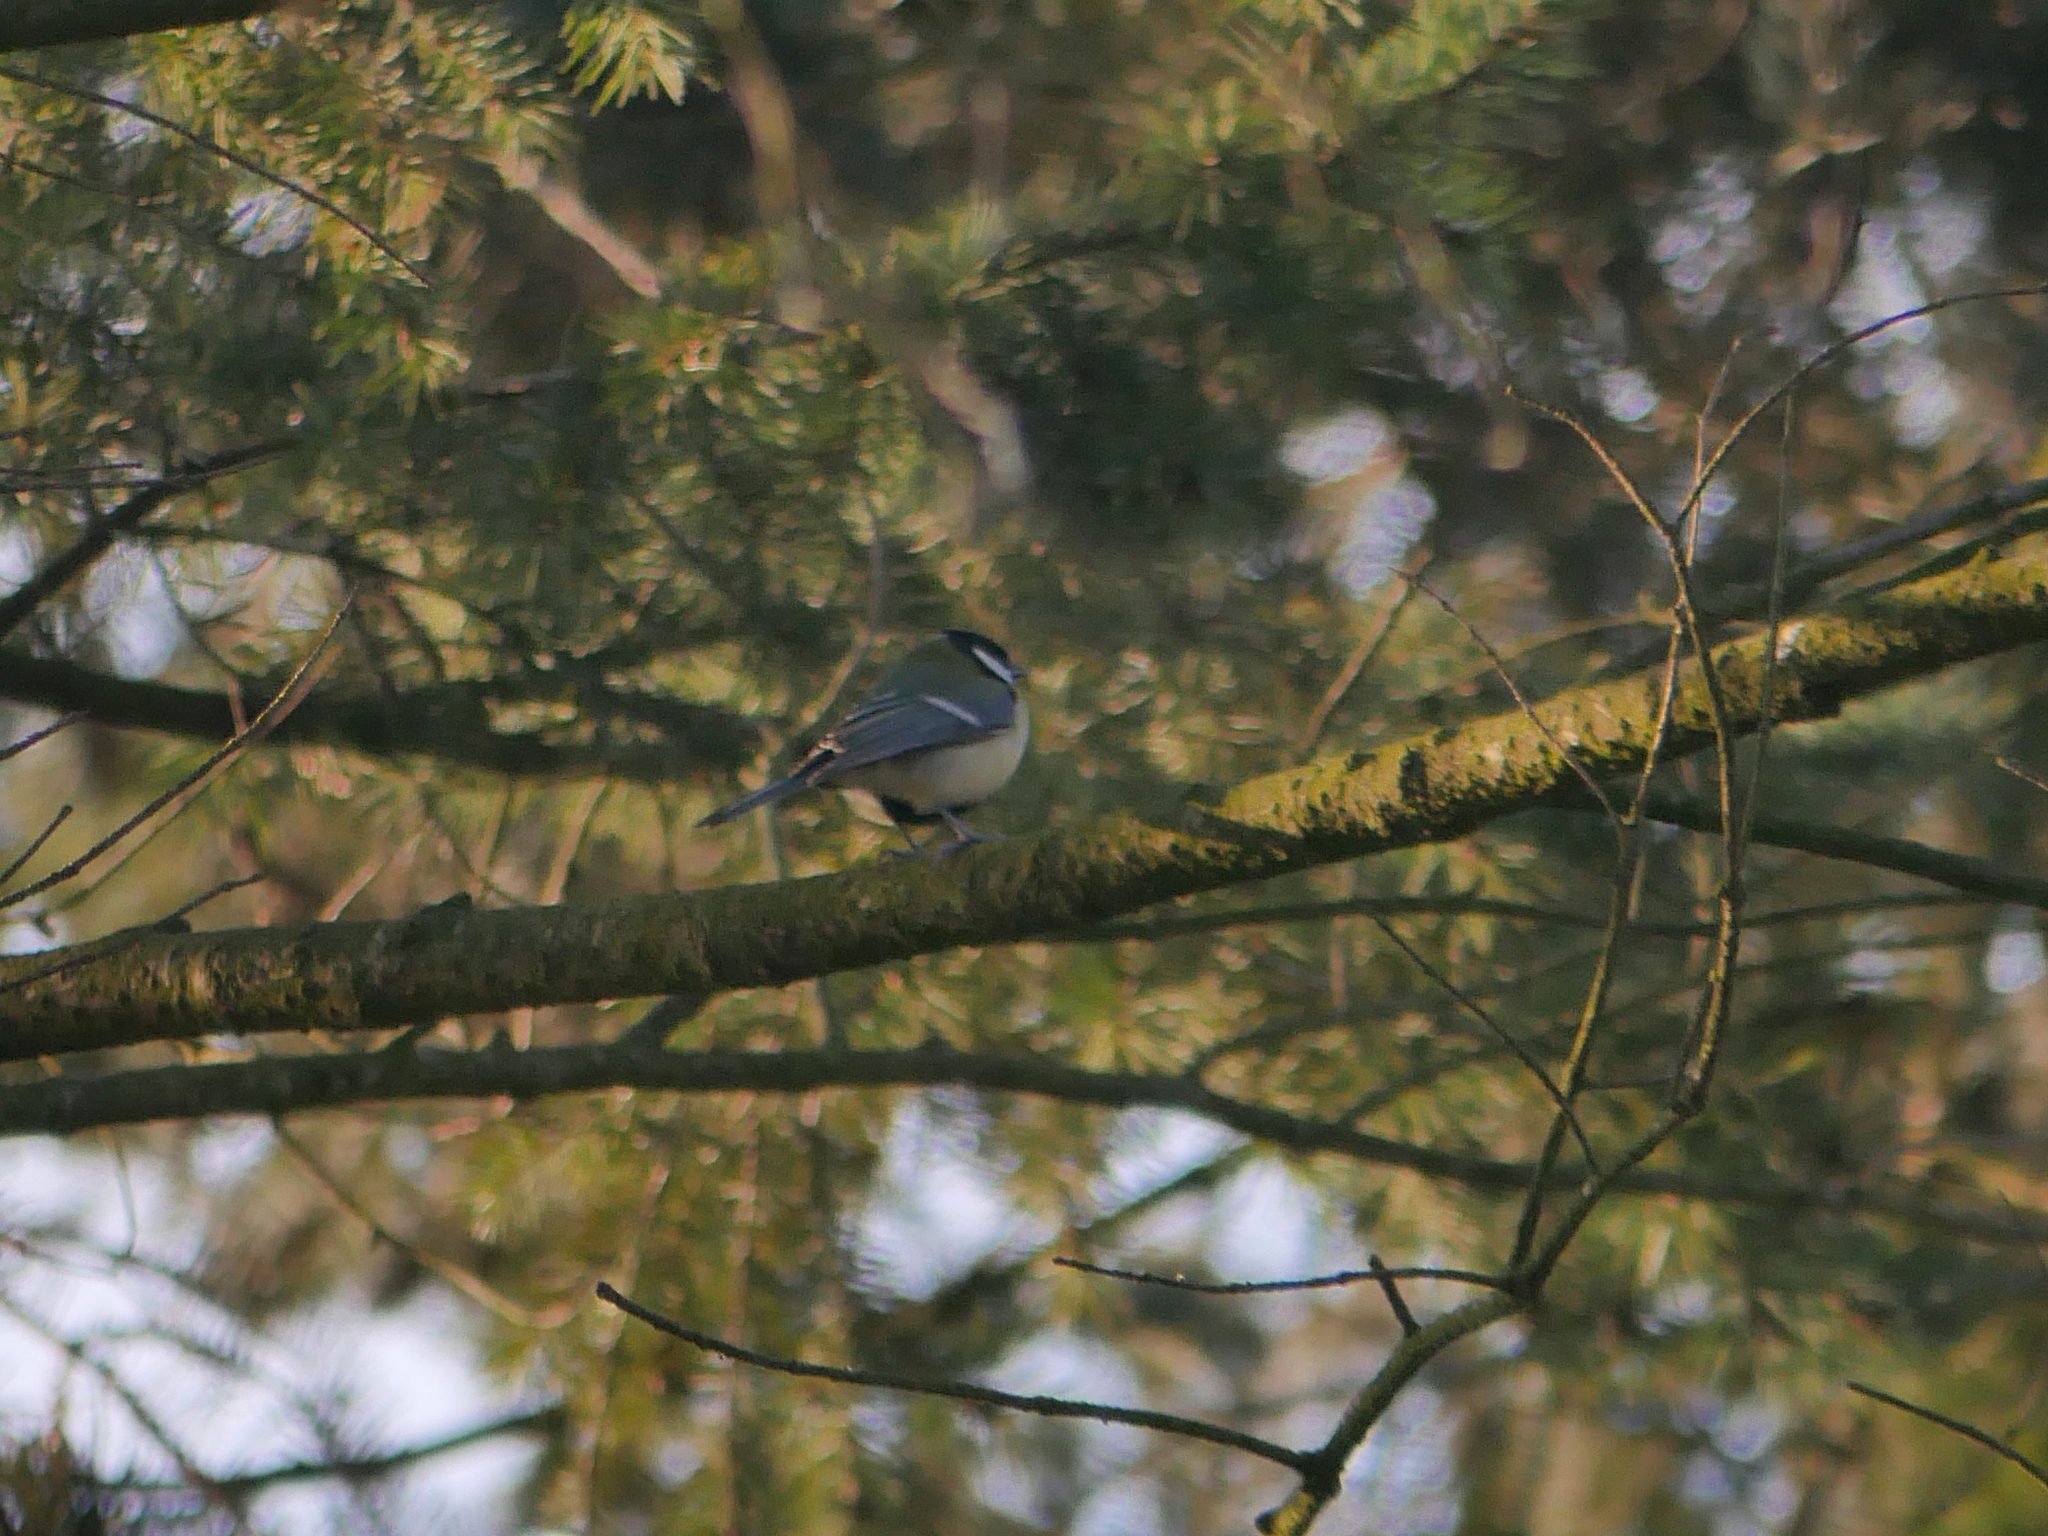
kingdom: Animalia
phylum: Chordata
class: Aves
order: Passeriformes
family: Paridae
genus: Parus
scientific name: Parus major
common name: Great tit
